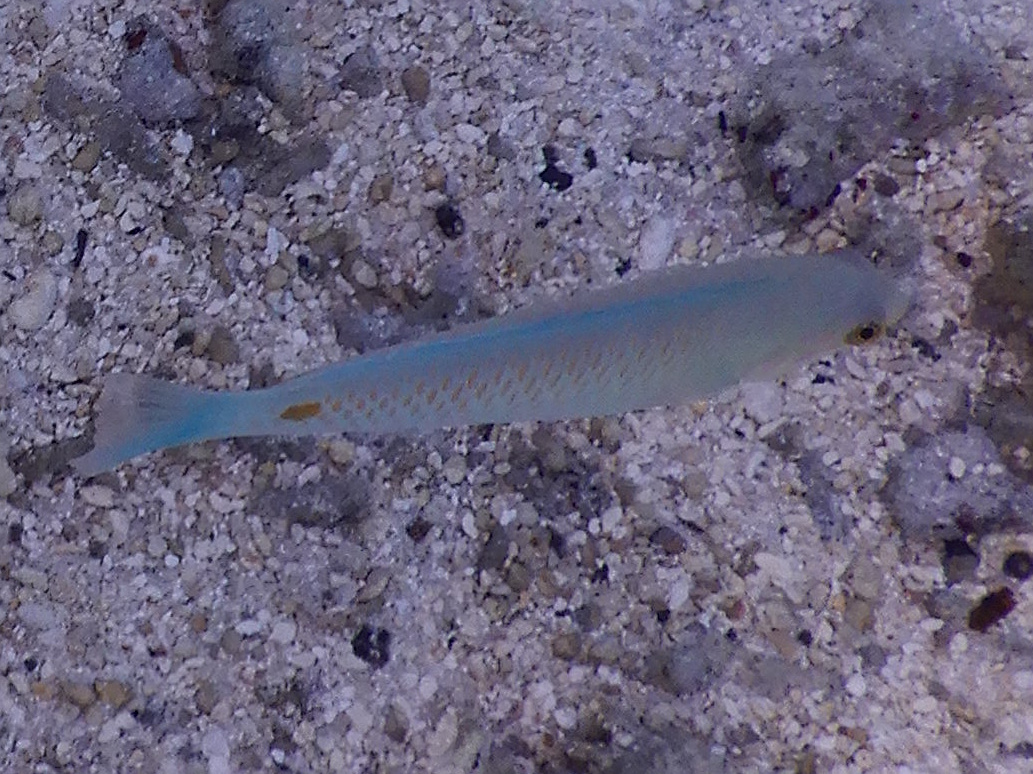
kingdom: Animalia
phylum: Chordata
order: Perciformes
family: Labridae
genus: Halichoeres
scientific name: Halichoeres trimaculatus
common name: Three-spot wrasse
